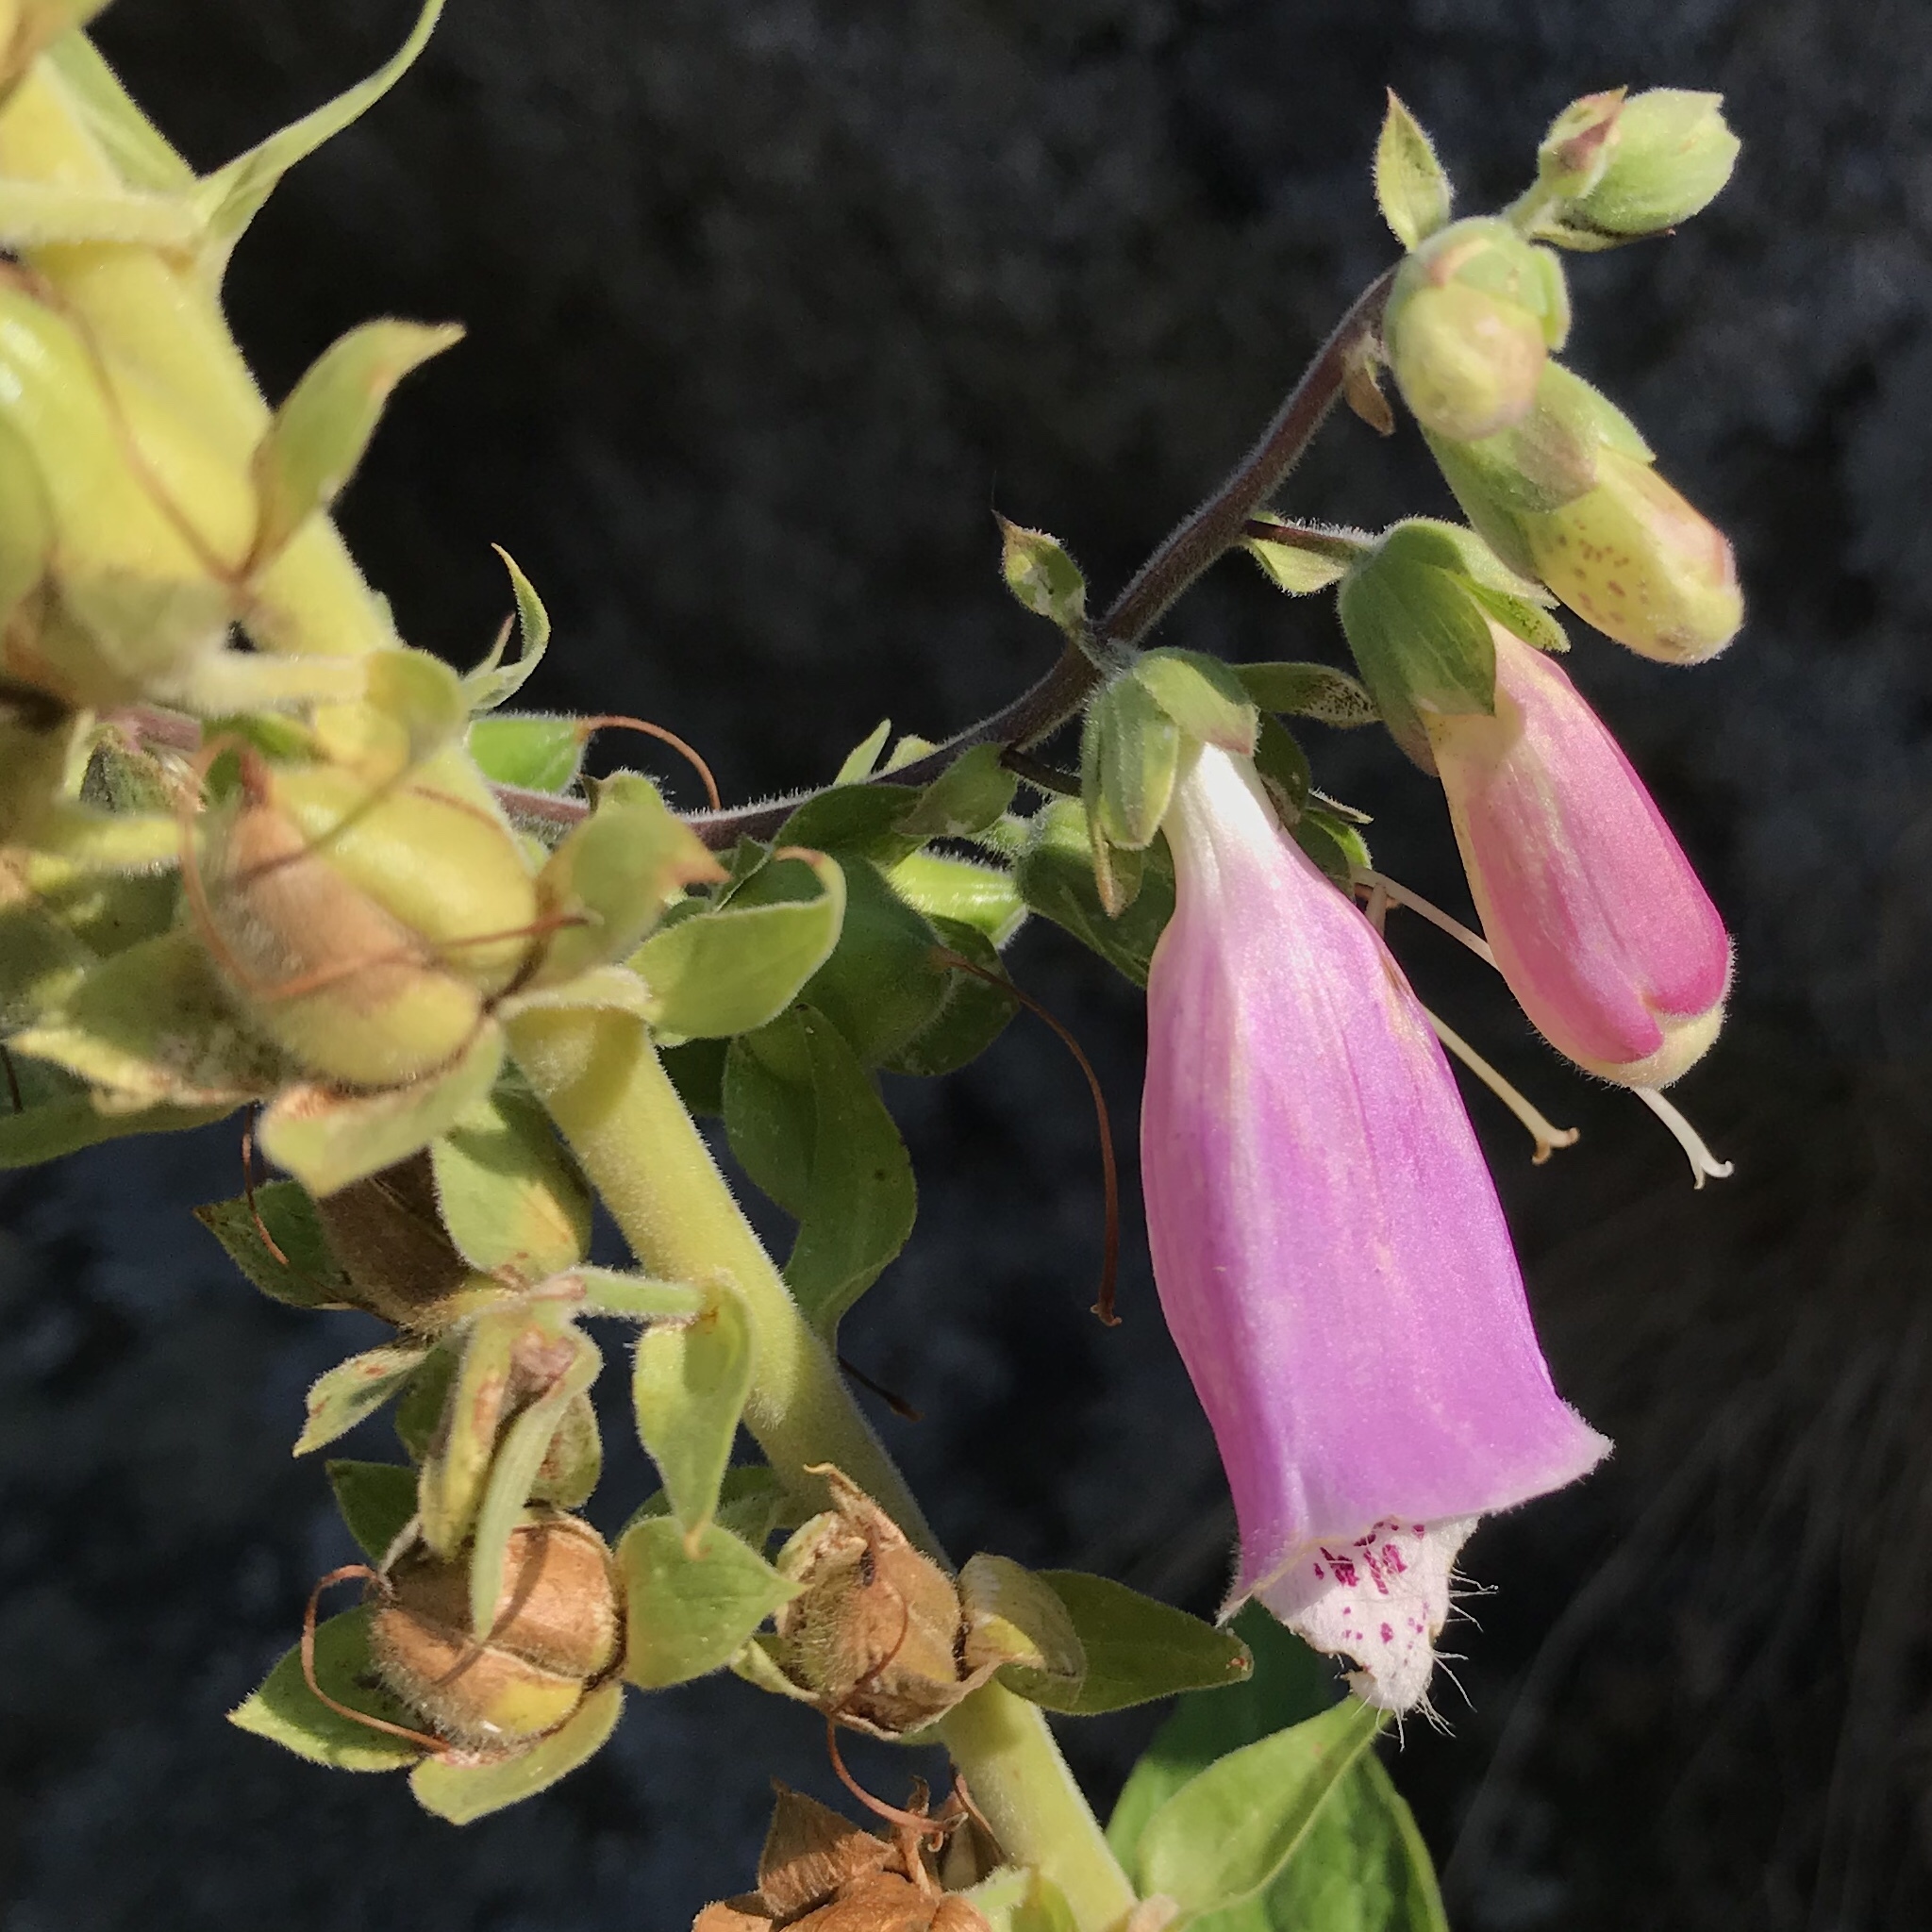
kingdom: Plantae
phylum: Tracheophyta
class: Magnoliopsida
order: Lamiales
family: Plantaginaceae
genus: Digitalis
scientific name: Digitalis purpurea
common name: Foxglove
